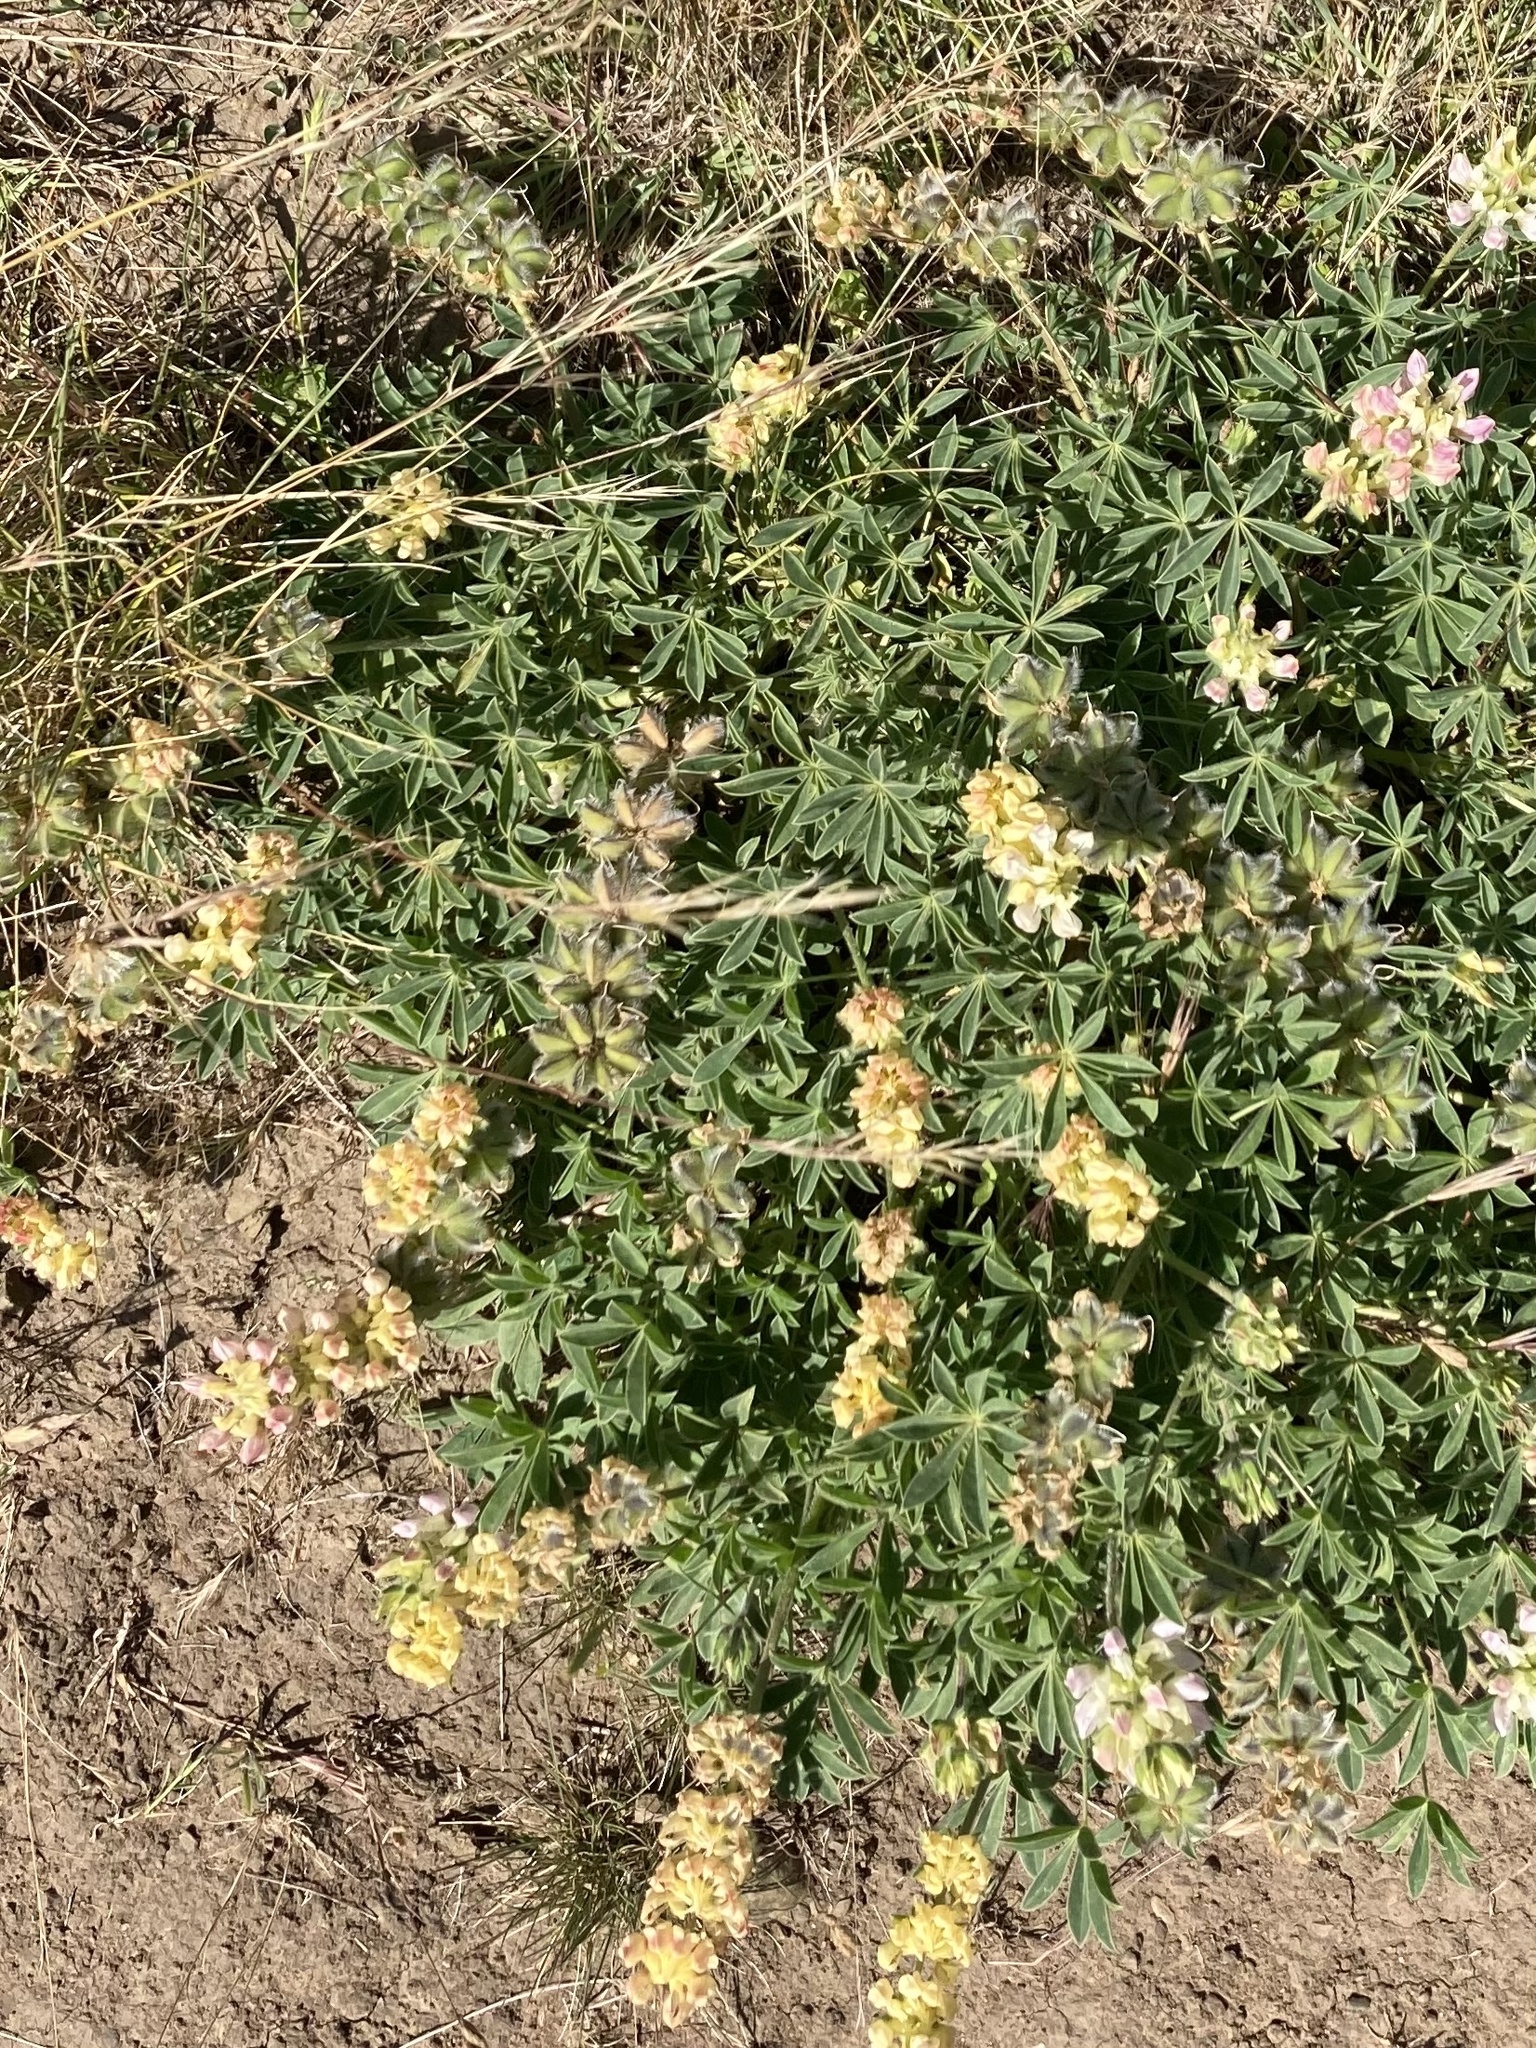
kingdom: Plantae
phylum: Tracheophyta
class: Magnoliopsida
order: Fabales
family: Fabaceae
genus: Lupinus
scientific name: Lupinus microcarpus
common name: Chick lupine
